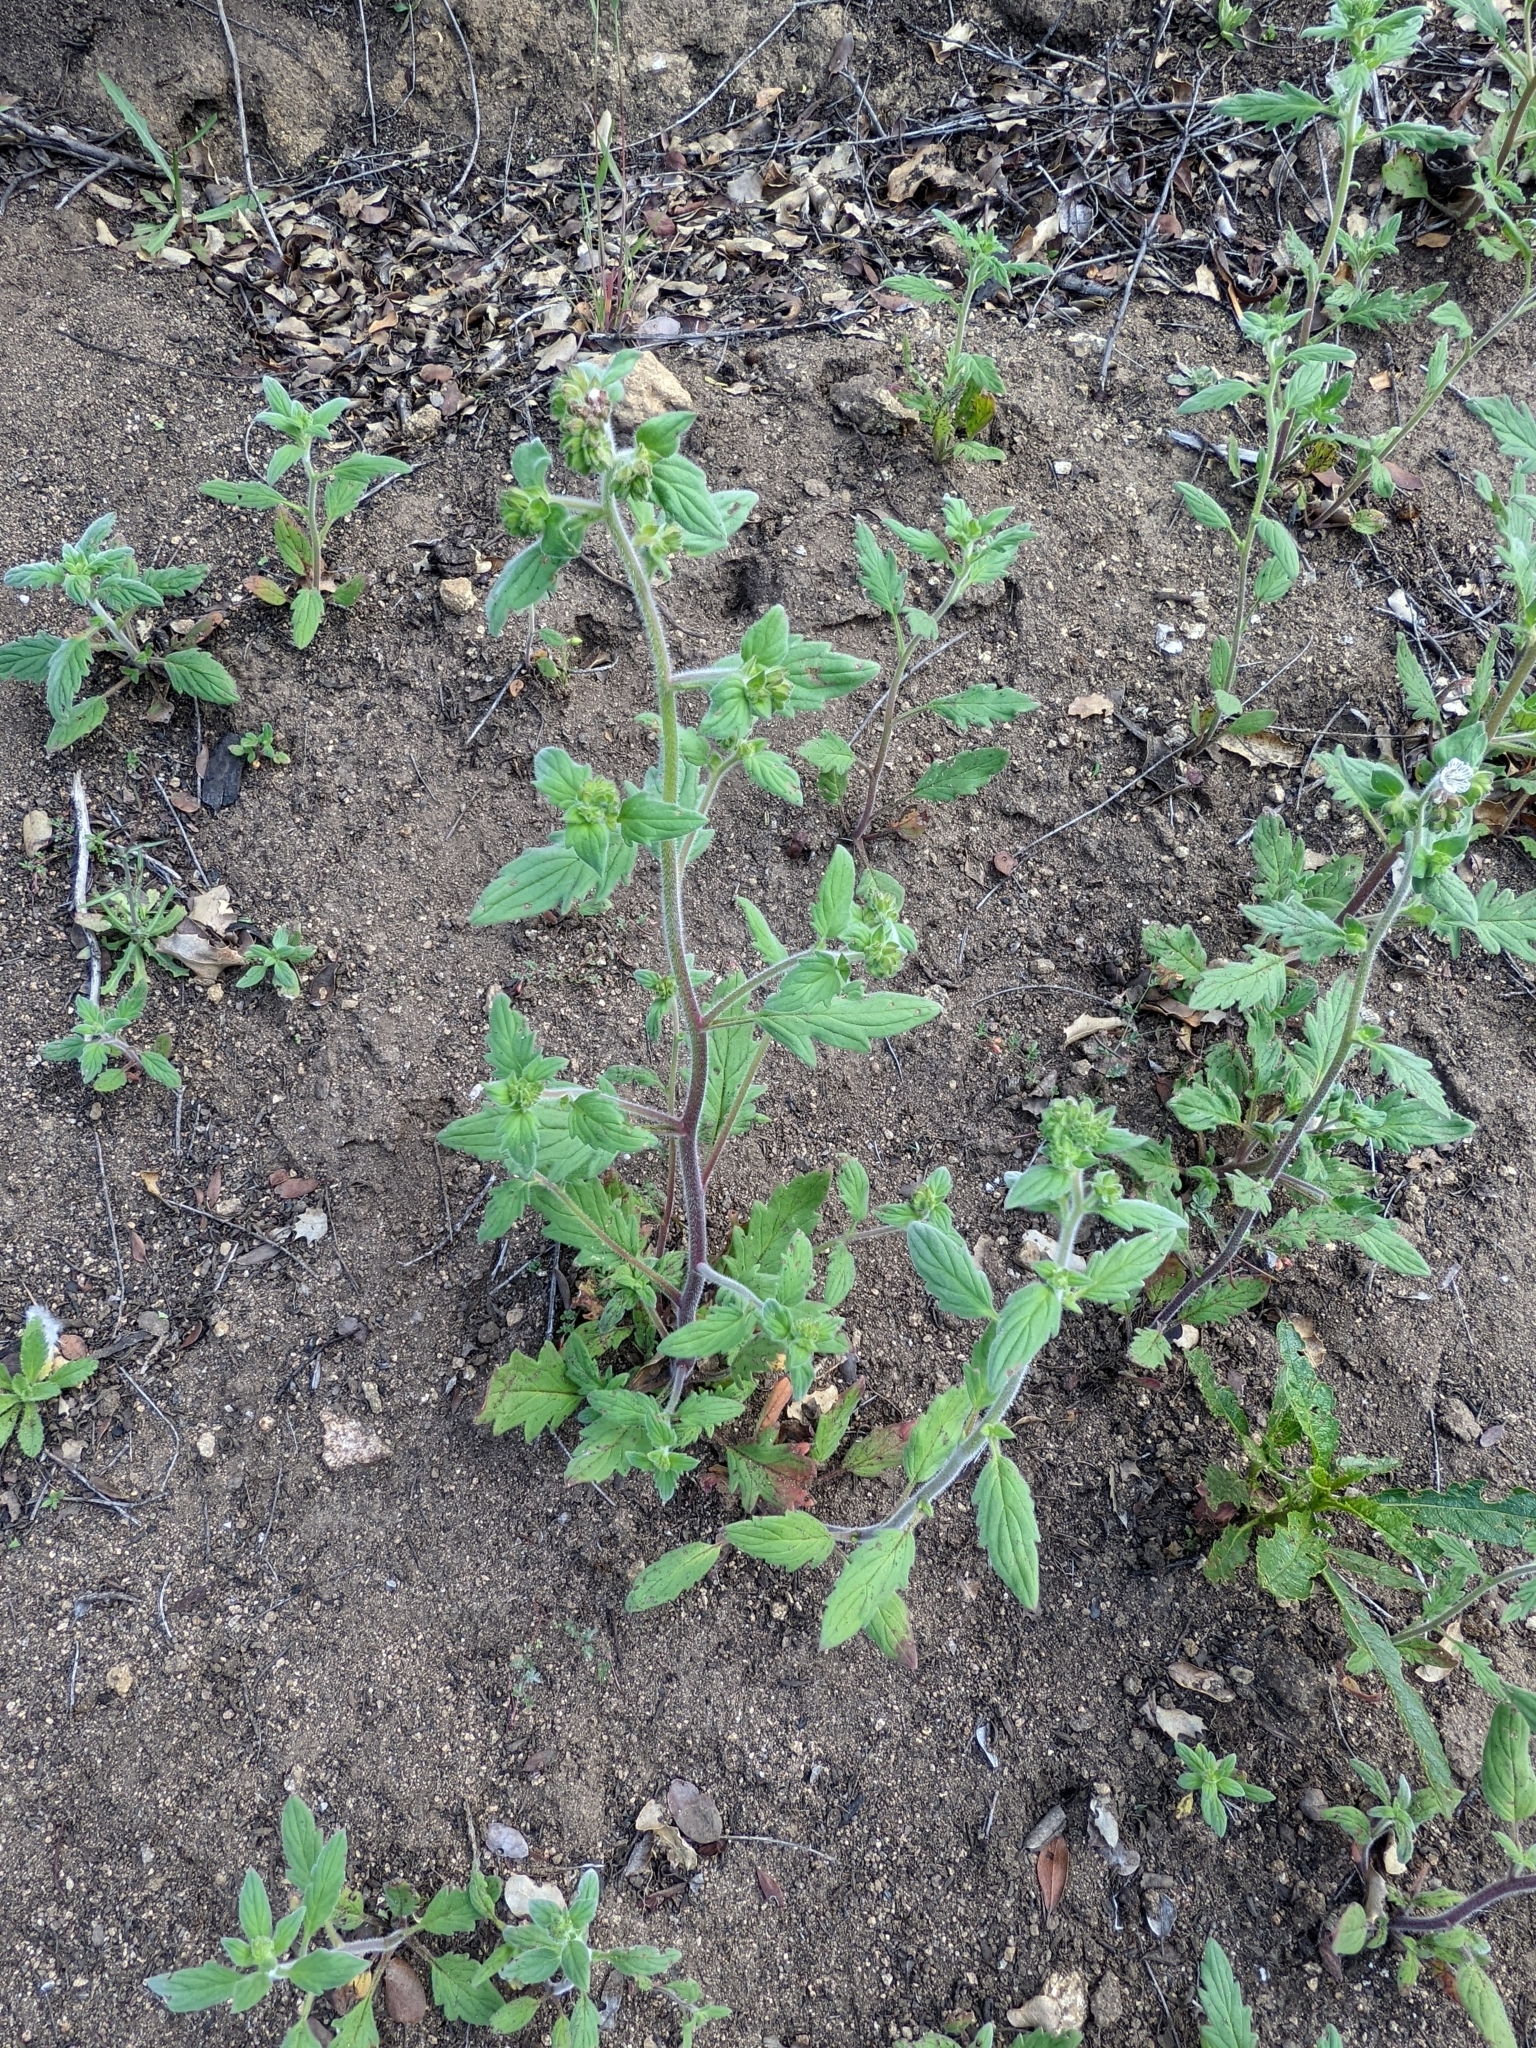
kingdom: Plantae
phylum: Tracheophyta
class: Magnoliopsida
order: Boraginales
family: Hydrophyllaceae
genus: Phacelia
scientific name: Phacelia grisea
